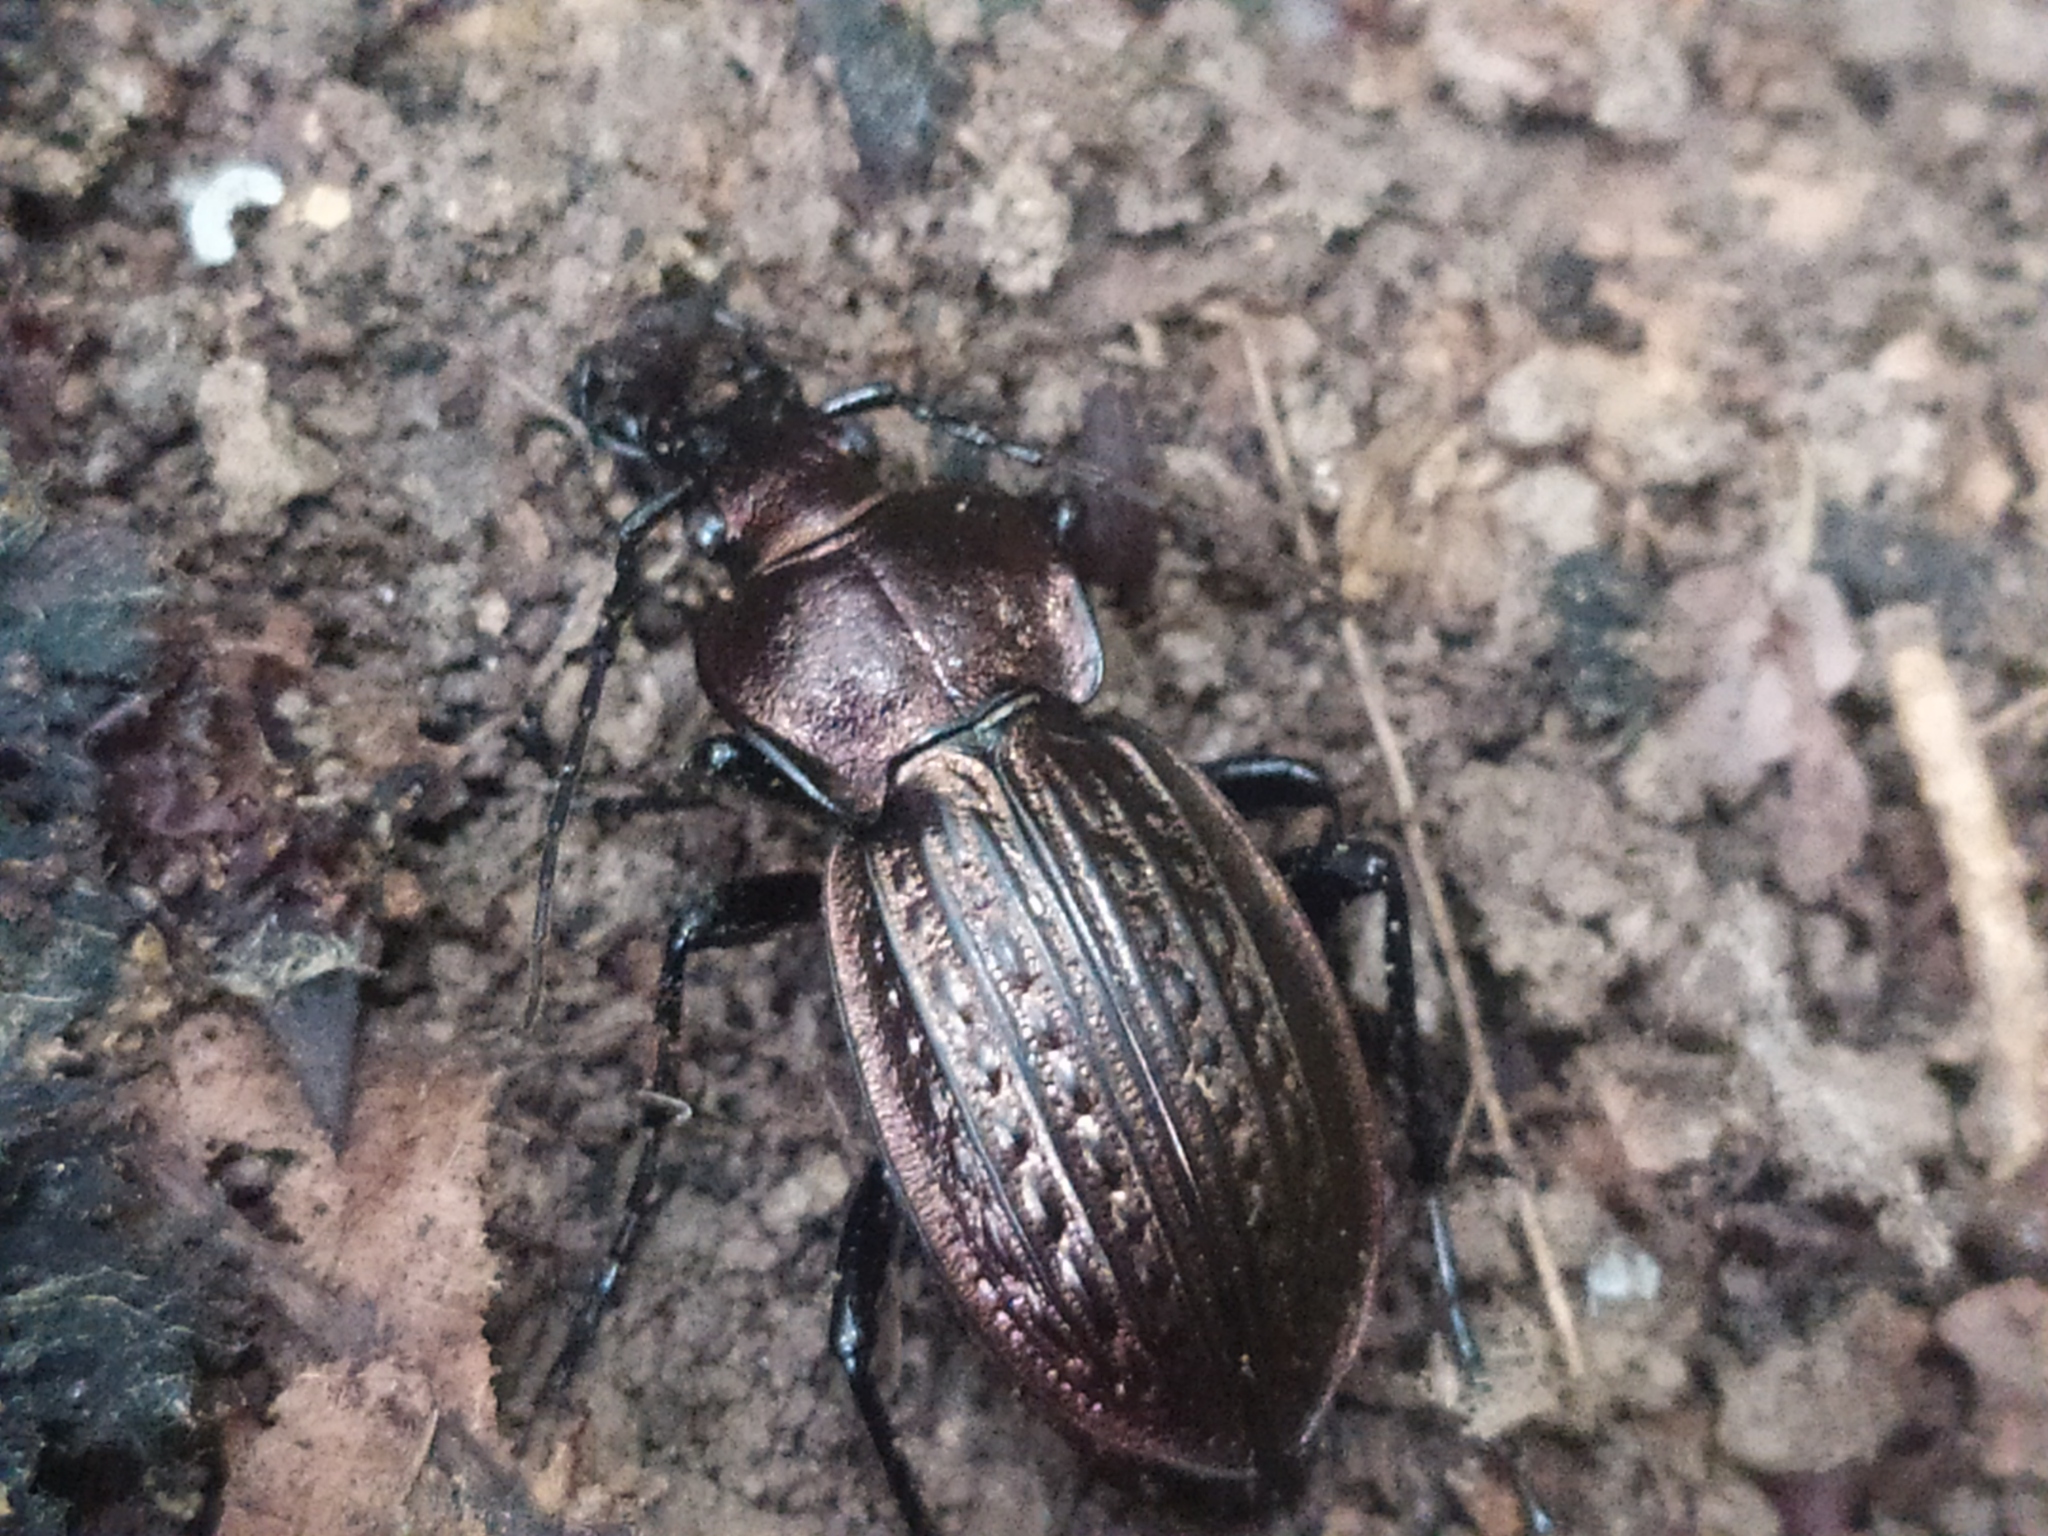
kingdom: Animalia
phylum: Arthropoda
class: Insecta
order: Coleoptera
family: Carabidae
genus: Carabus
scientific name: Carabus ulrichii
